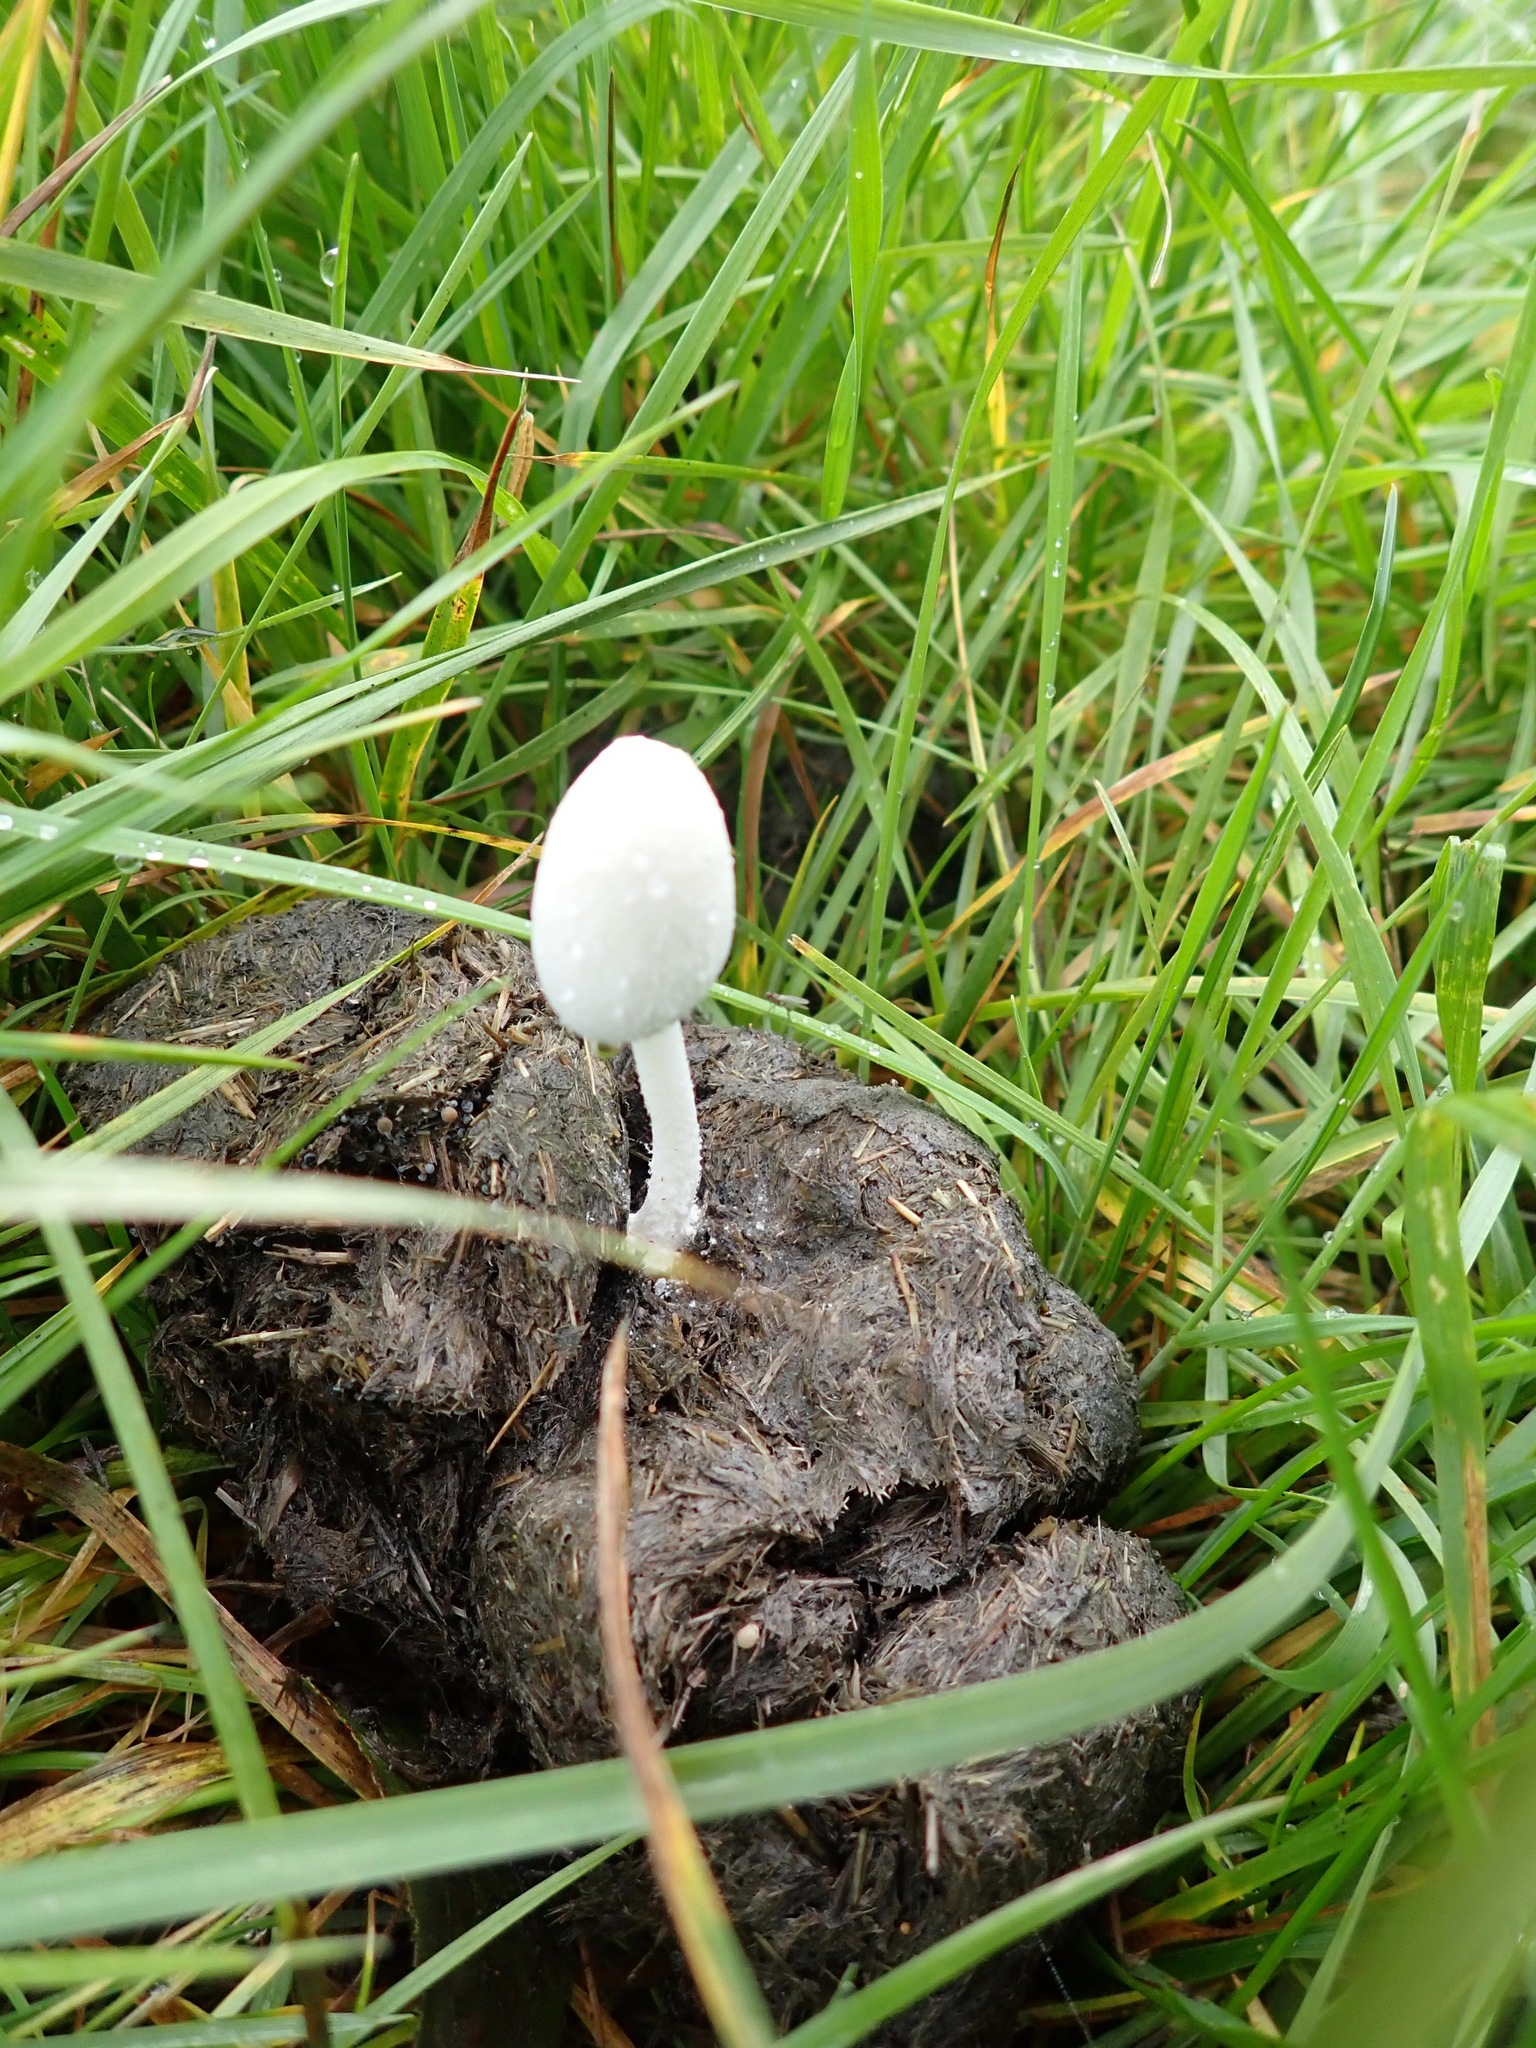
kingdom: Fungi
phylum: Basidiomycota
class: Agaricomycetes
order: Agaricales
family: Psathyrellaceae
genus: Coprinopsis
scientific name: Coprinopsis nivea
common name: Snowy inkcap
